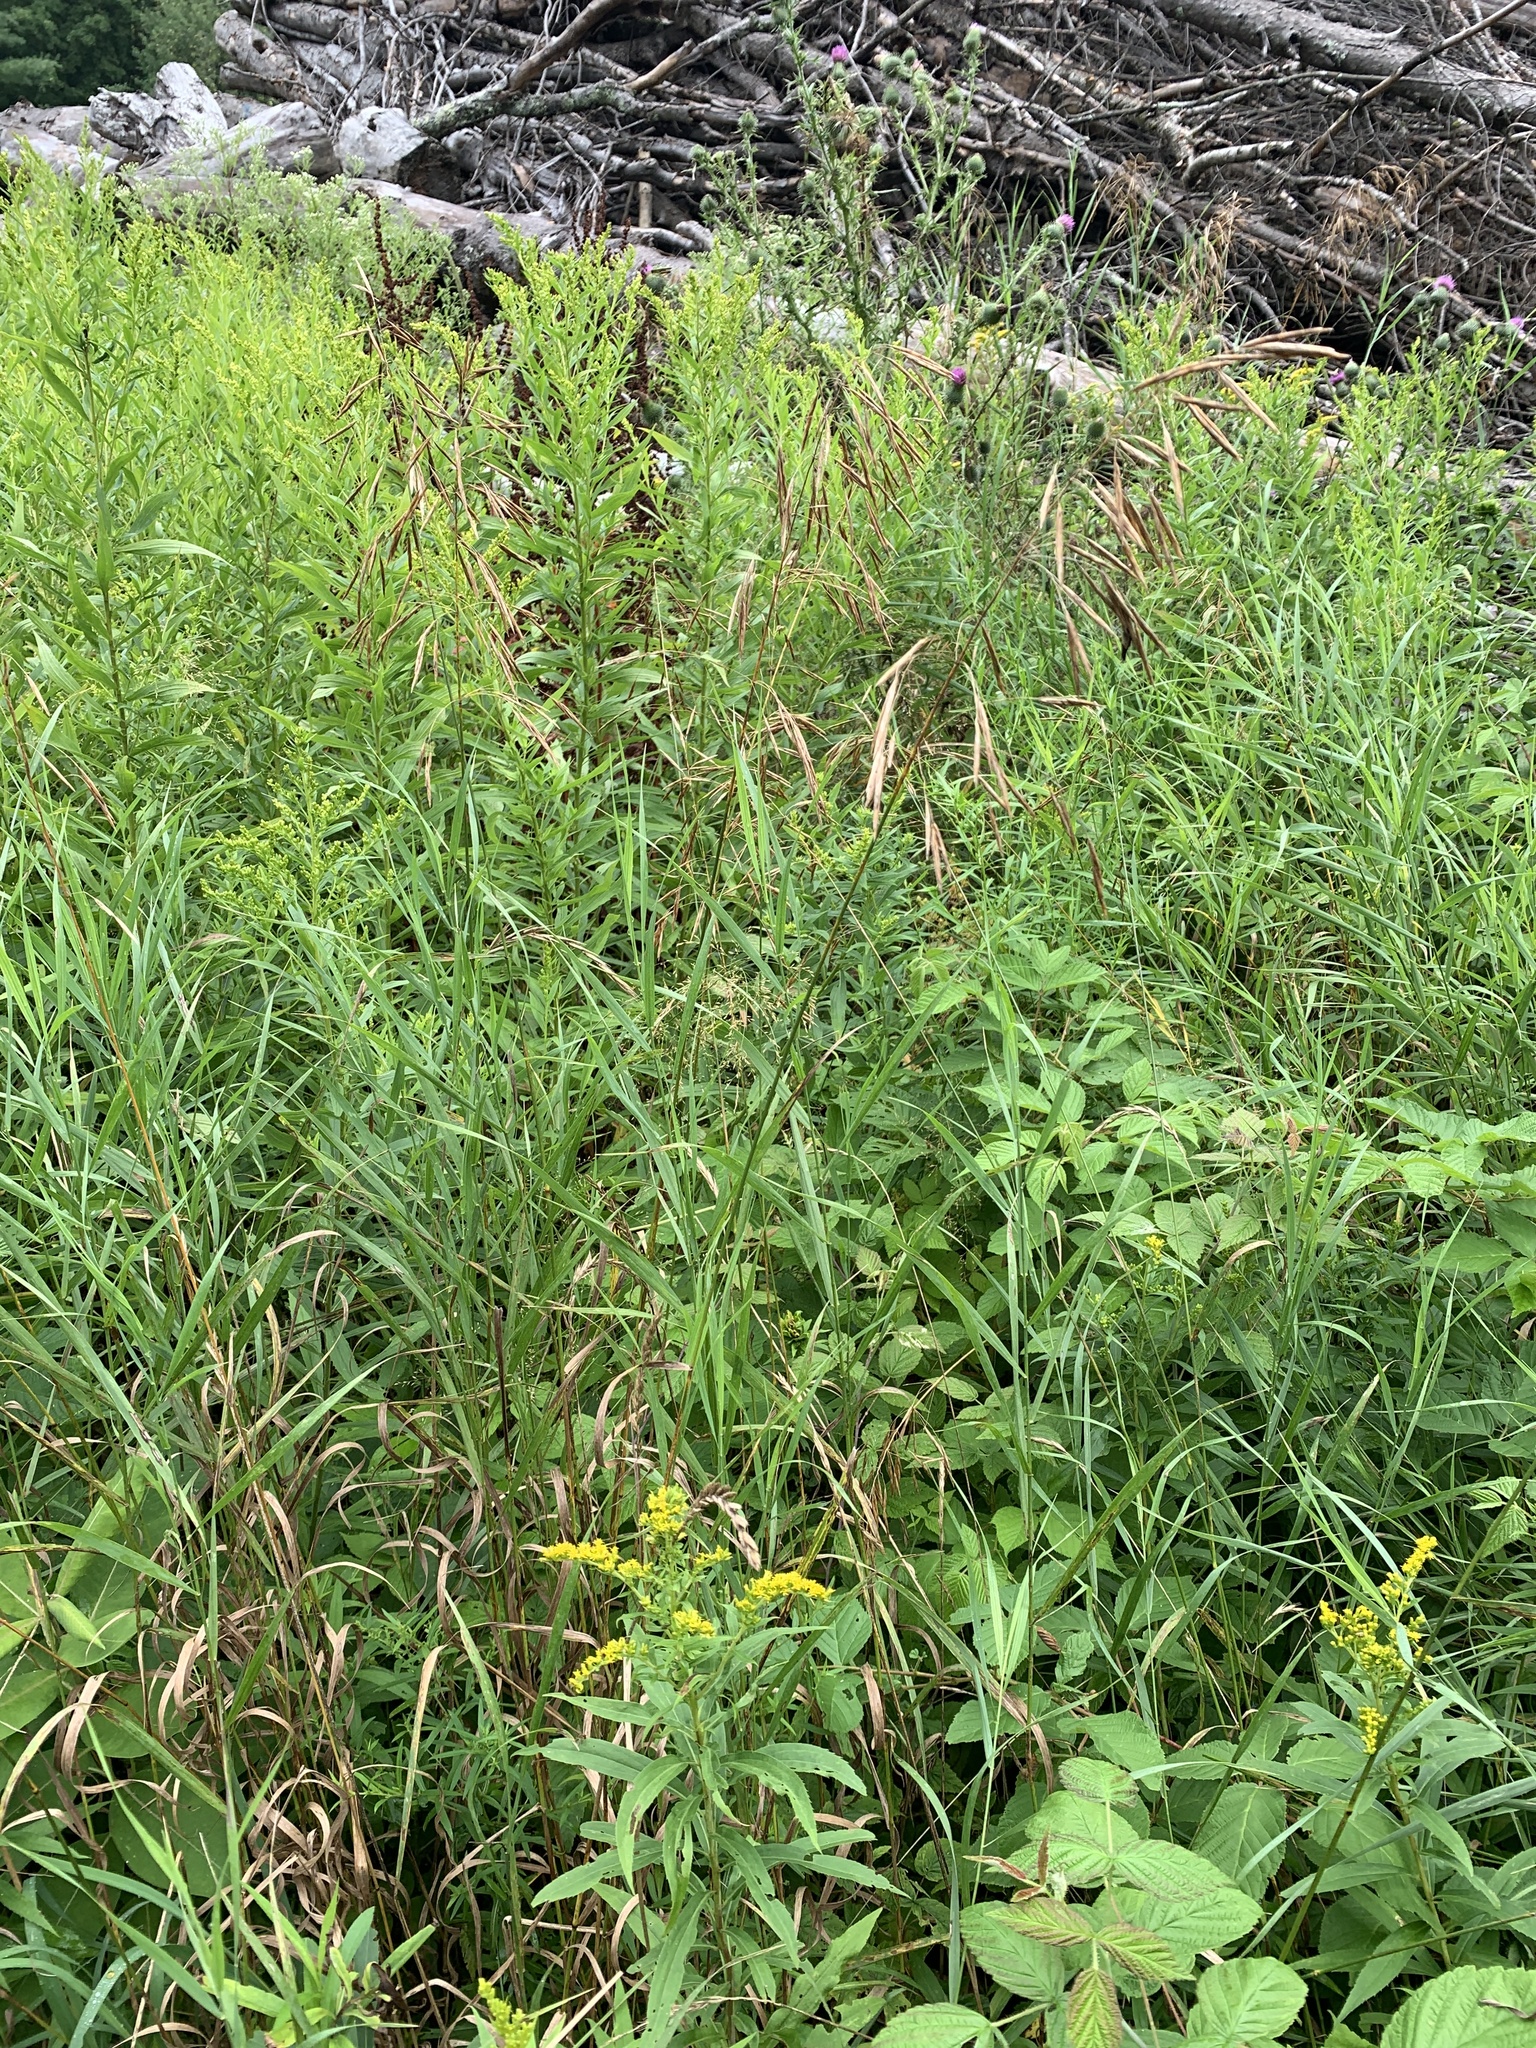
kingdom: Plantae
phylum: Tracheophyta
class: Liliopsida
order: Poales
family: Poaceae
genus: Bromus
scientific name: Bromus inermis
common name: Smooth brome
